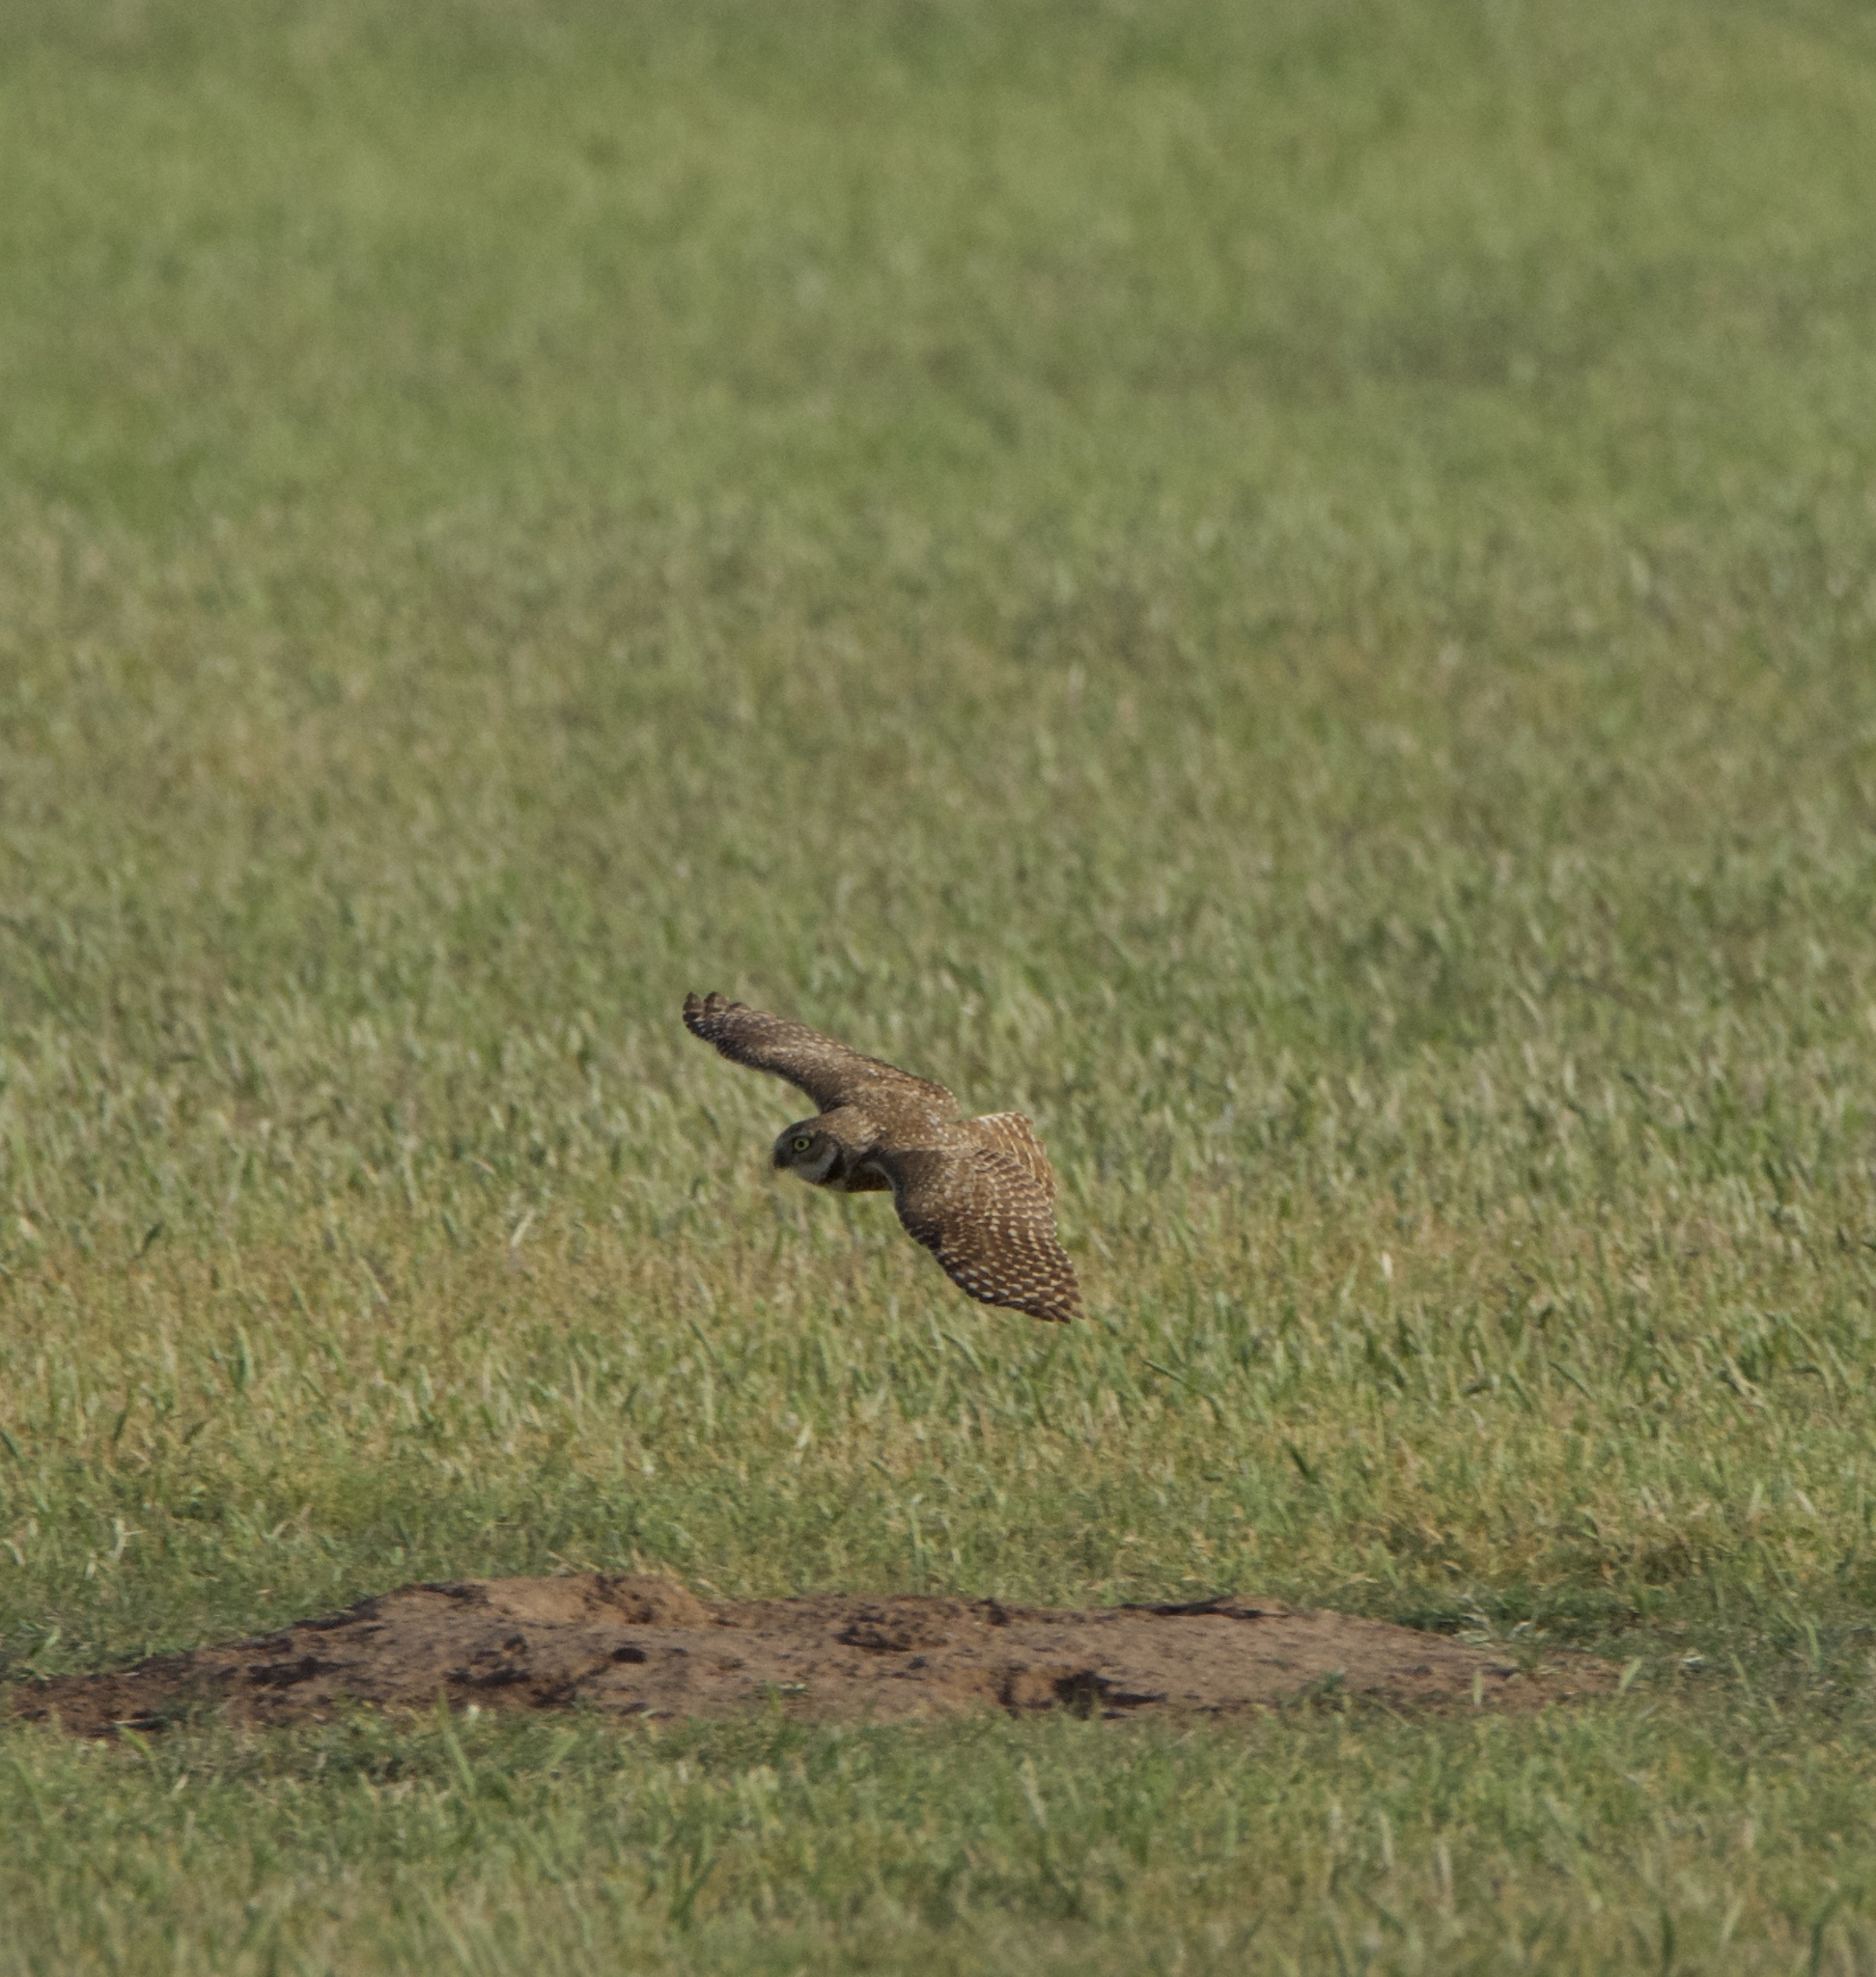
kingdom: Animalia
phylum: Chordata
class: Aves
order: Strigiformes
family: Strigidae
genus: Athene
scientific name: Athene cunicularia
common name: Burrowing owl
